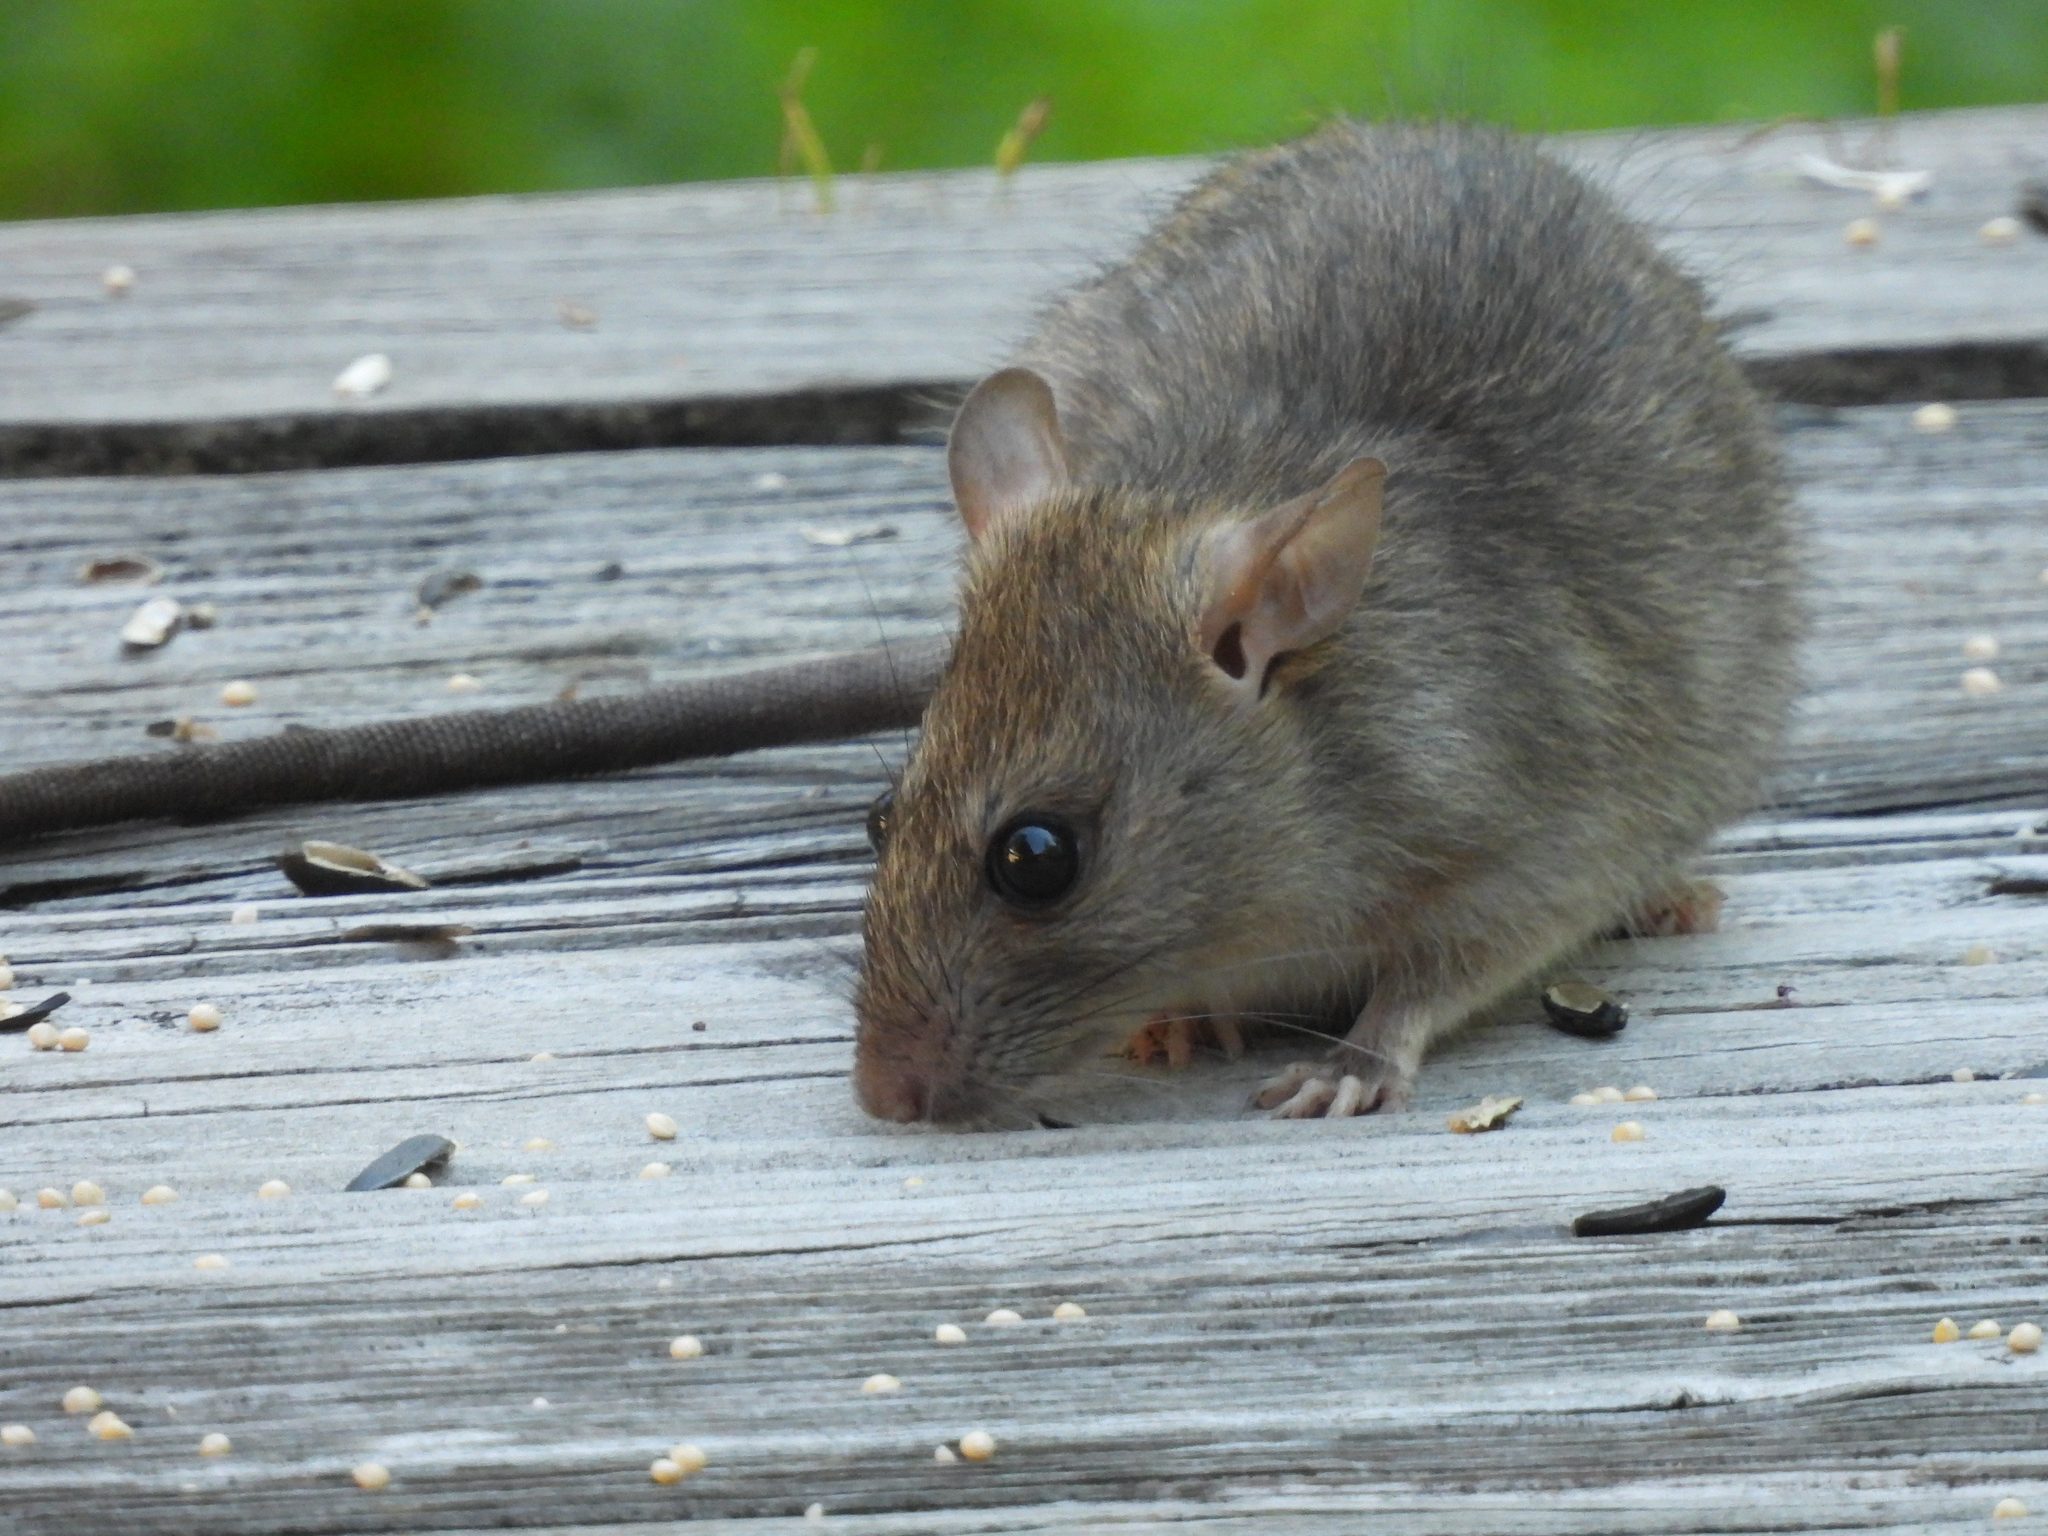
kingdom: Animalia
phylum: Chordata
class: Mammalia
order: Rodentia
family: Muridae
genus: Rattus
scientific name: Rattus rattus
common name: Black rat
